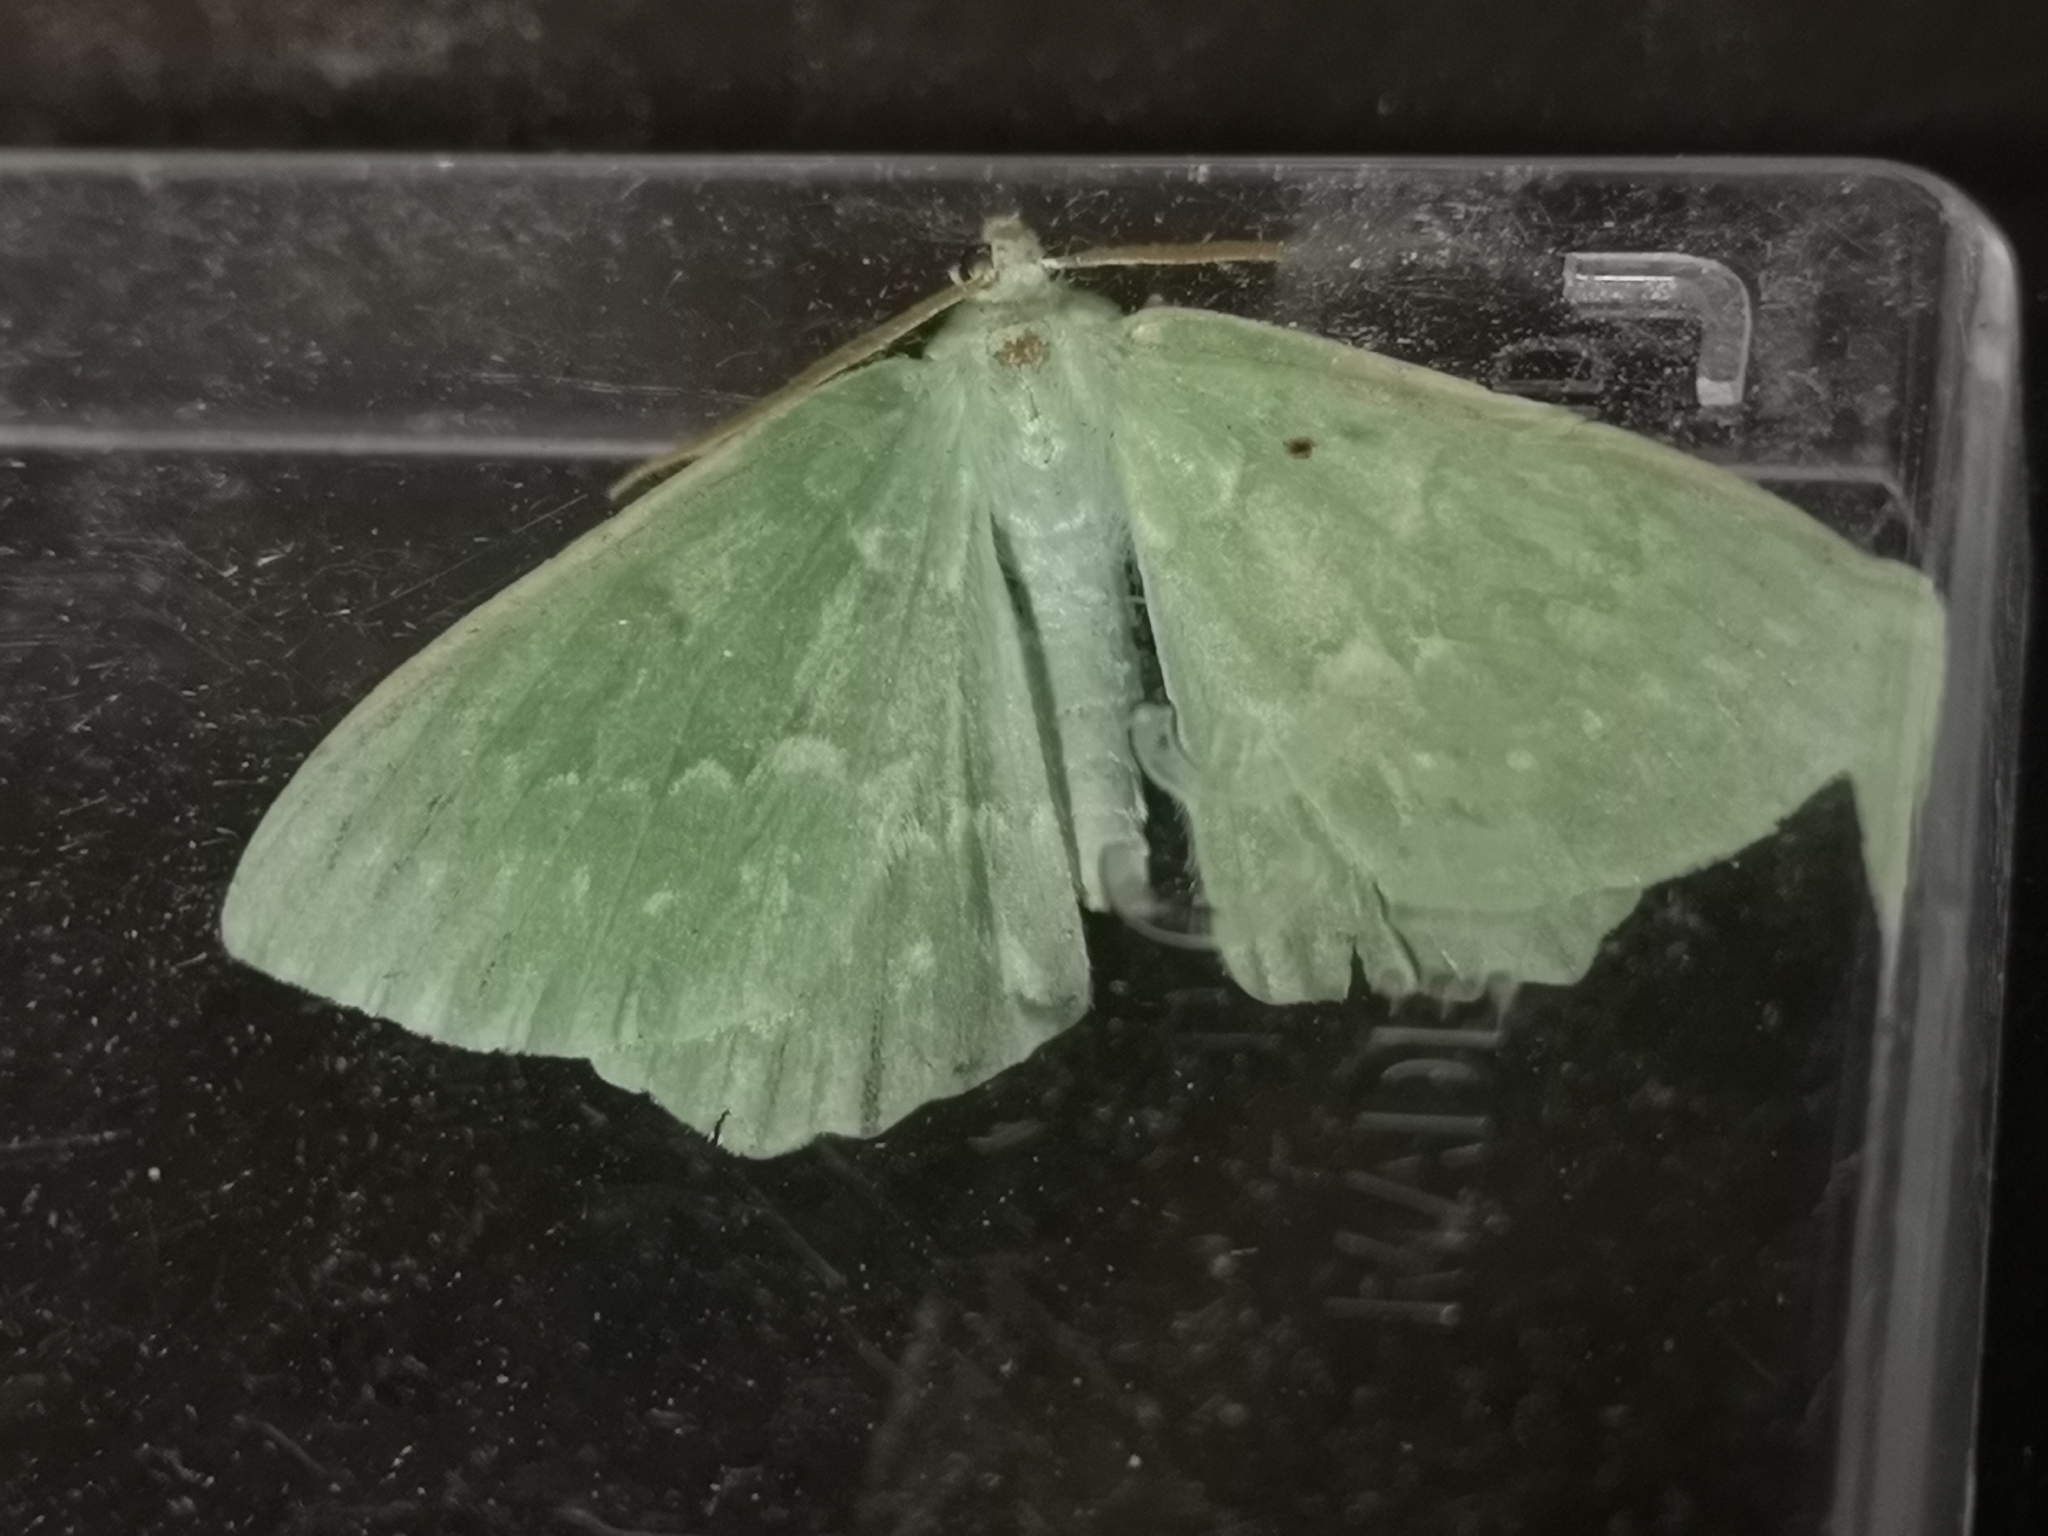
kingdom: Animalia
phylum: Arthropoda
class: Insecta
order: Lepidoptera
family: Geometridae
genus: Geometra
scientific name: Geometra papilionaria
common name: Large emerald
